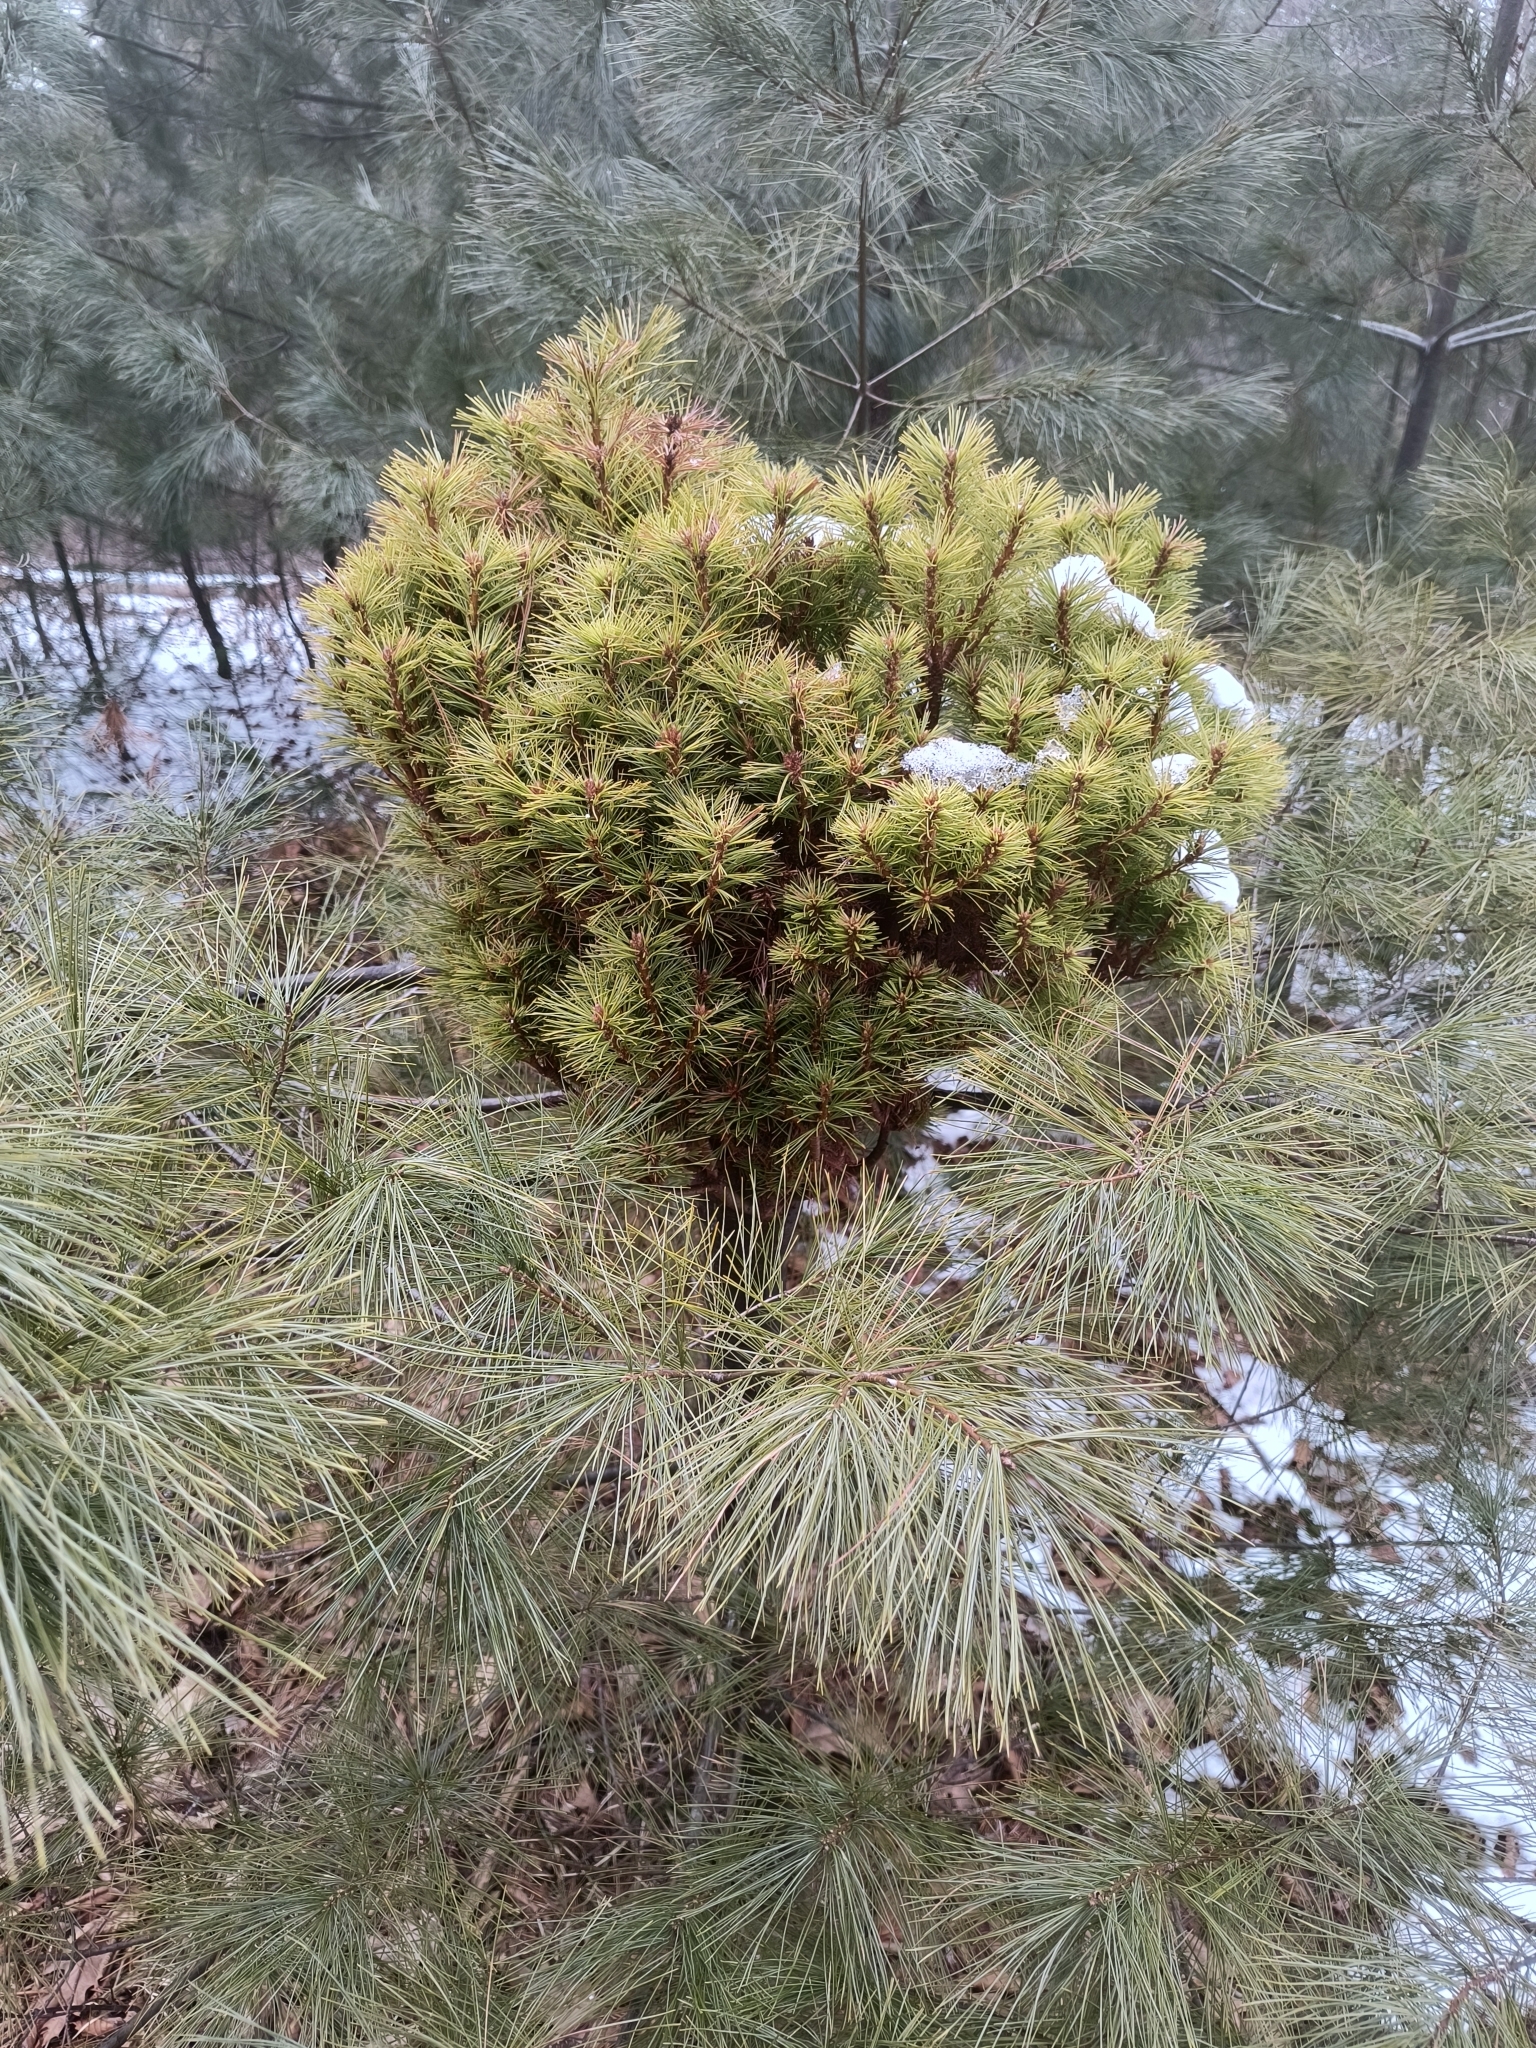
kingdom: Plantae
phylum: Tracheophyta
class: Pinopsida
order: Pinales
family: Pinaceae
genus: Pinus
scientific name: Pinus strobus
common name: Weymouth pine
